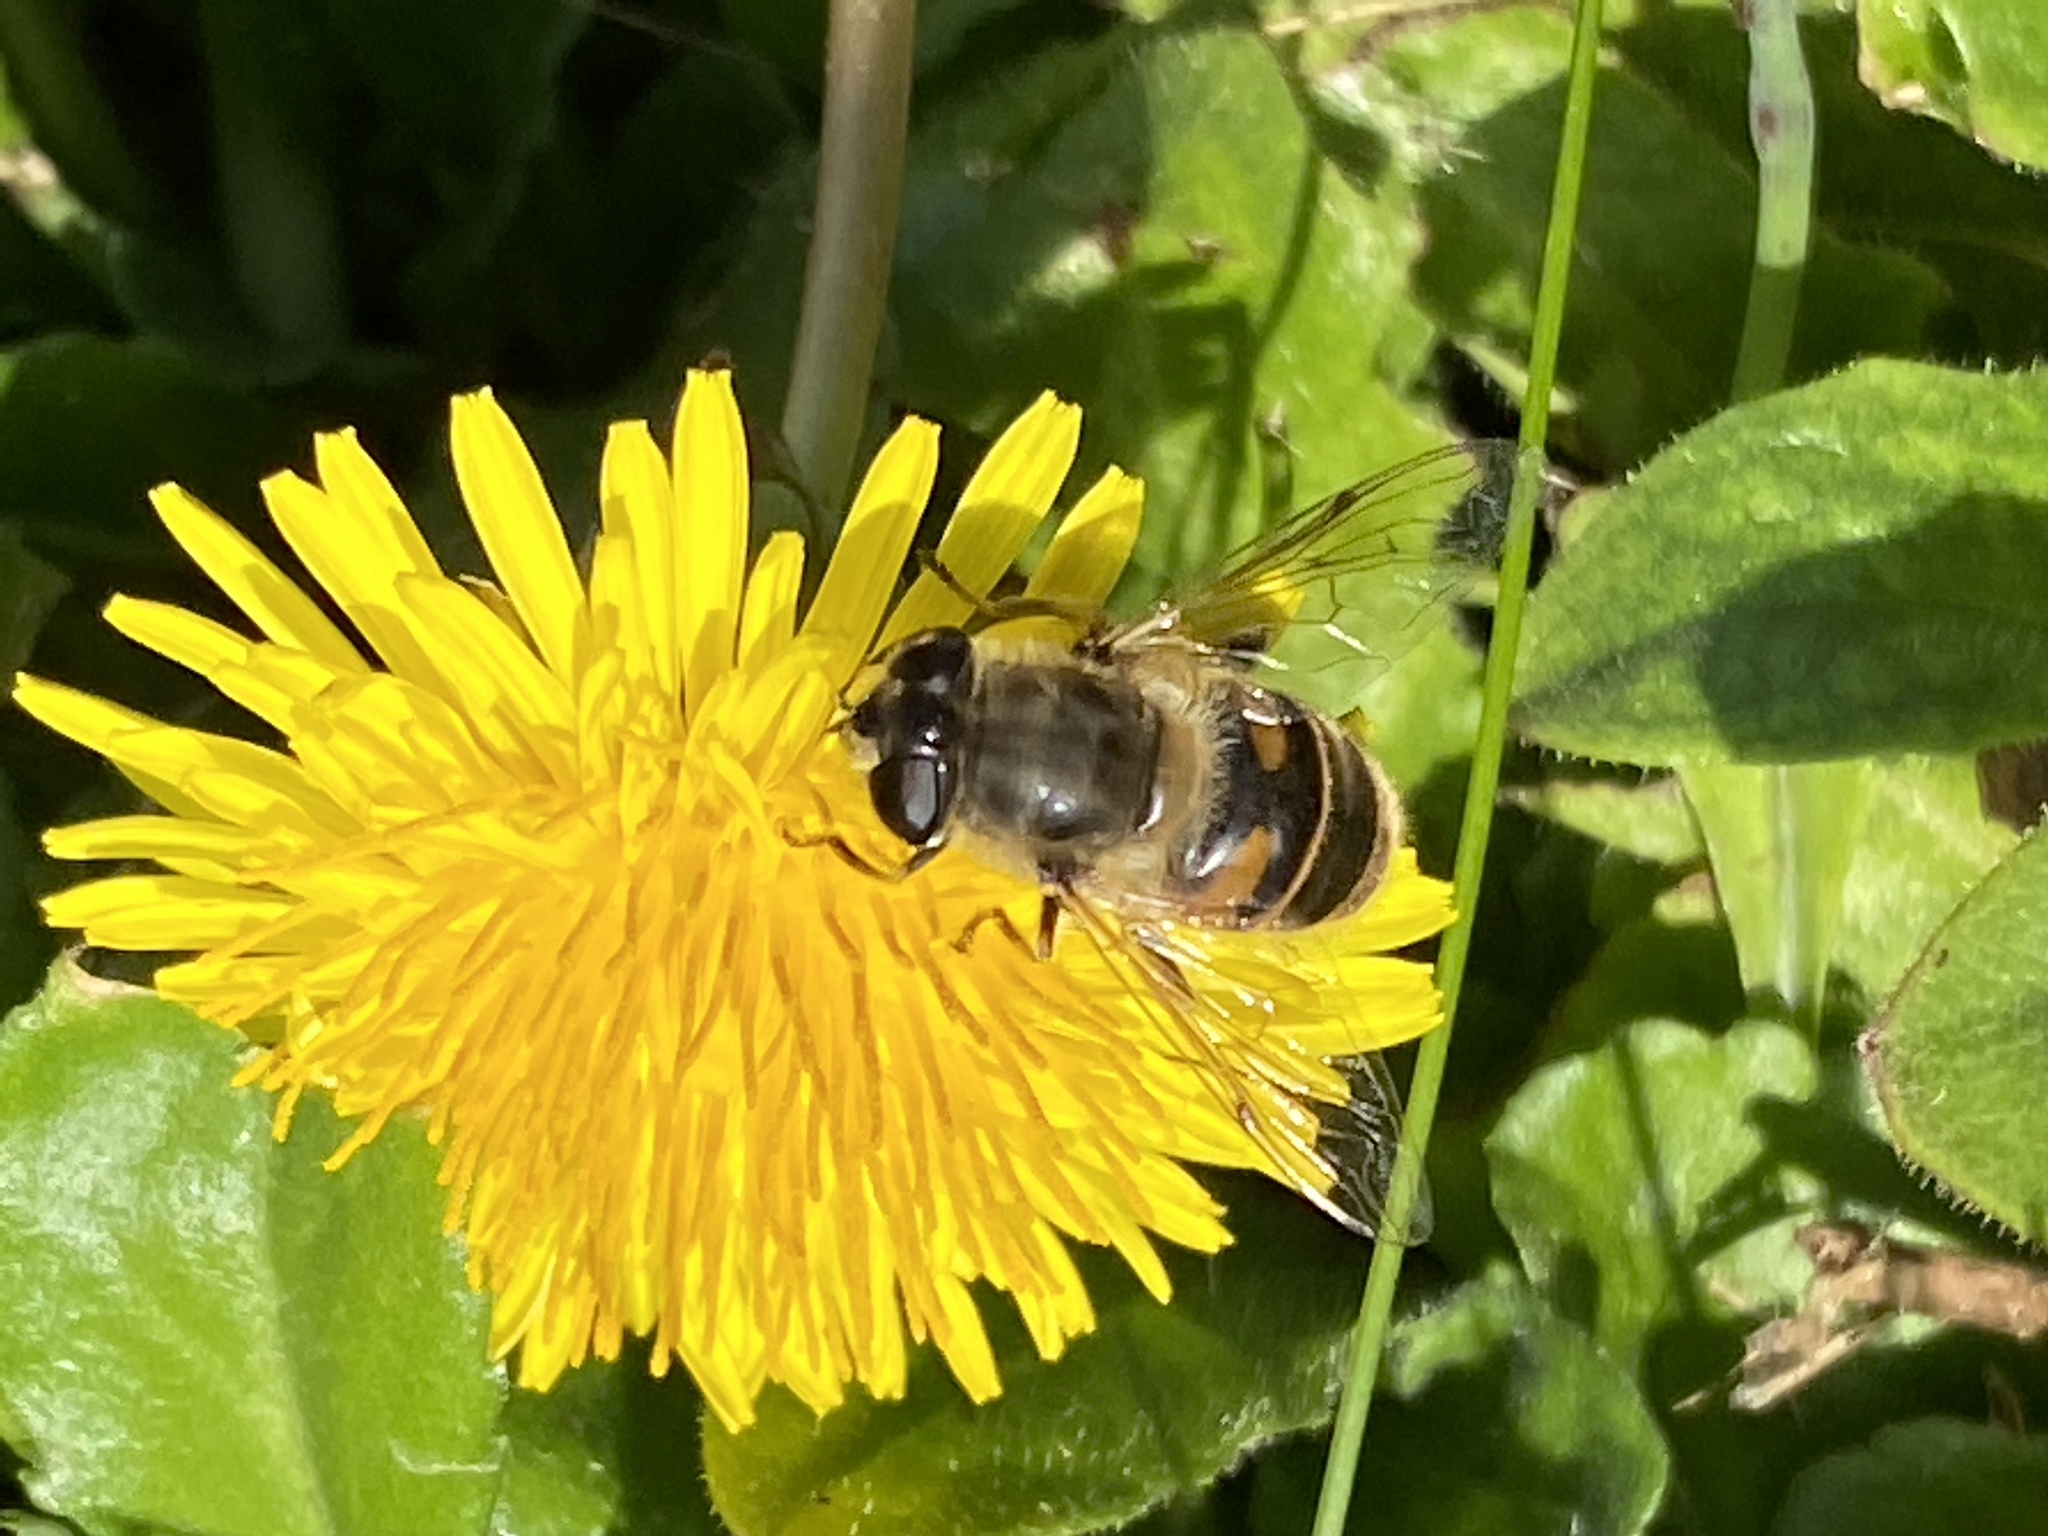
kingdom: Animalia
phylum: Arthropoda
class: Insecta
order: Diptera
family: Syrphidae
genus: Eristalis
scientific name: Eristalis tenax
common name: Drone fly
